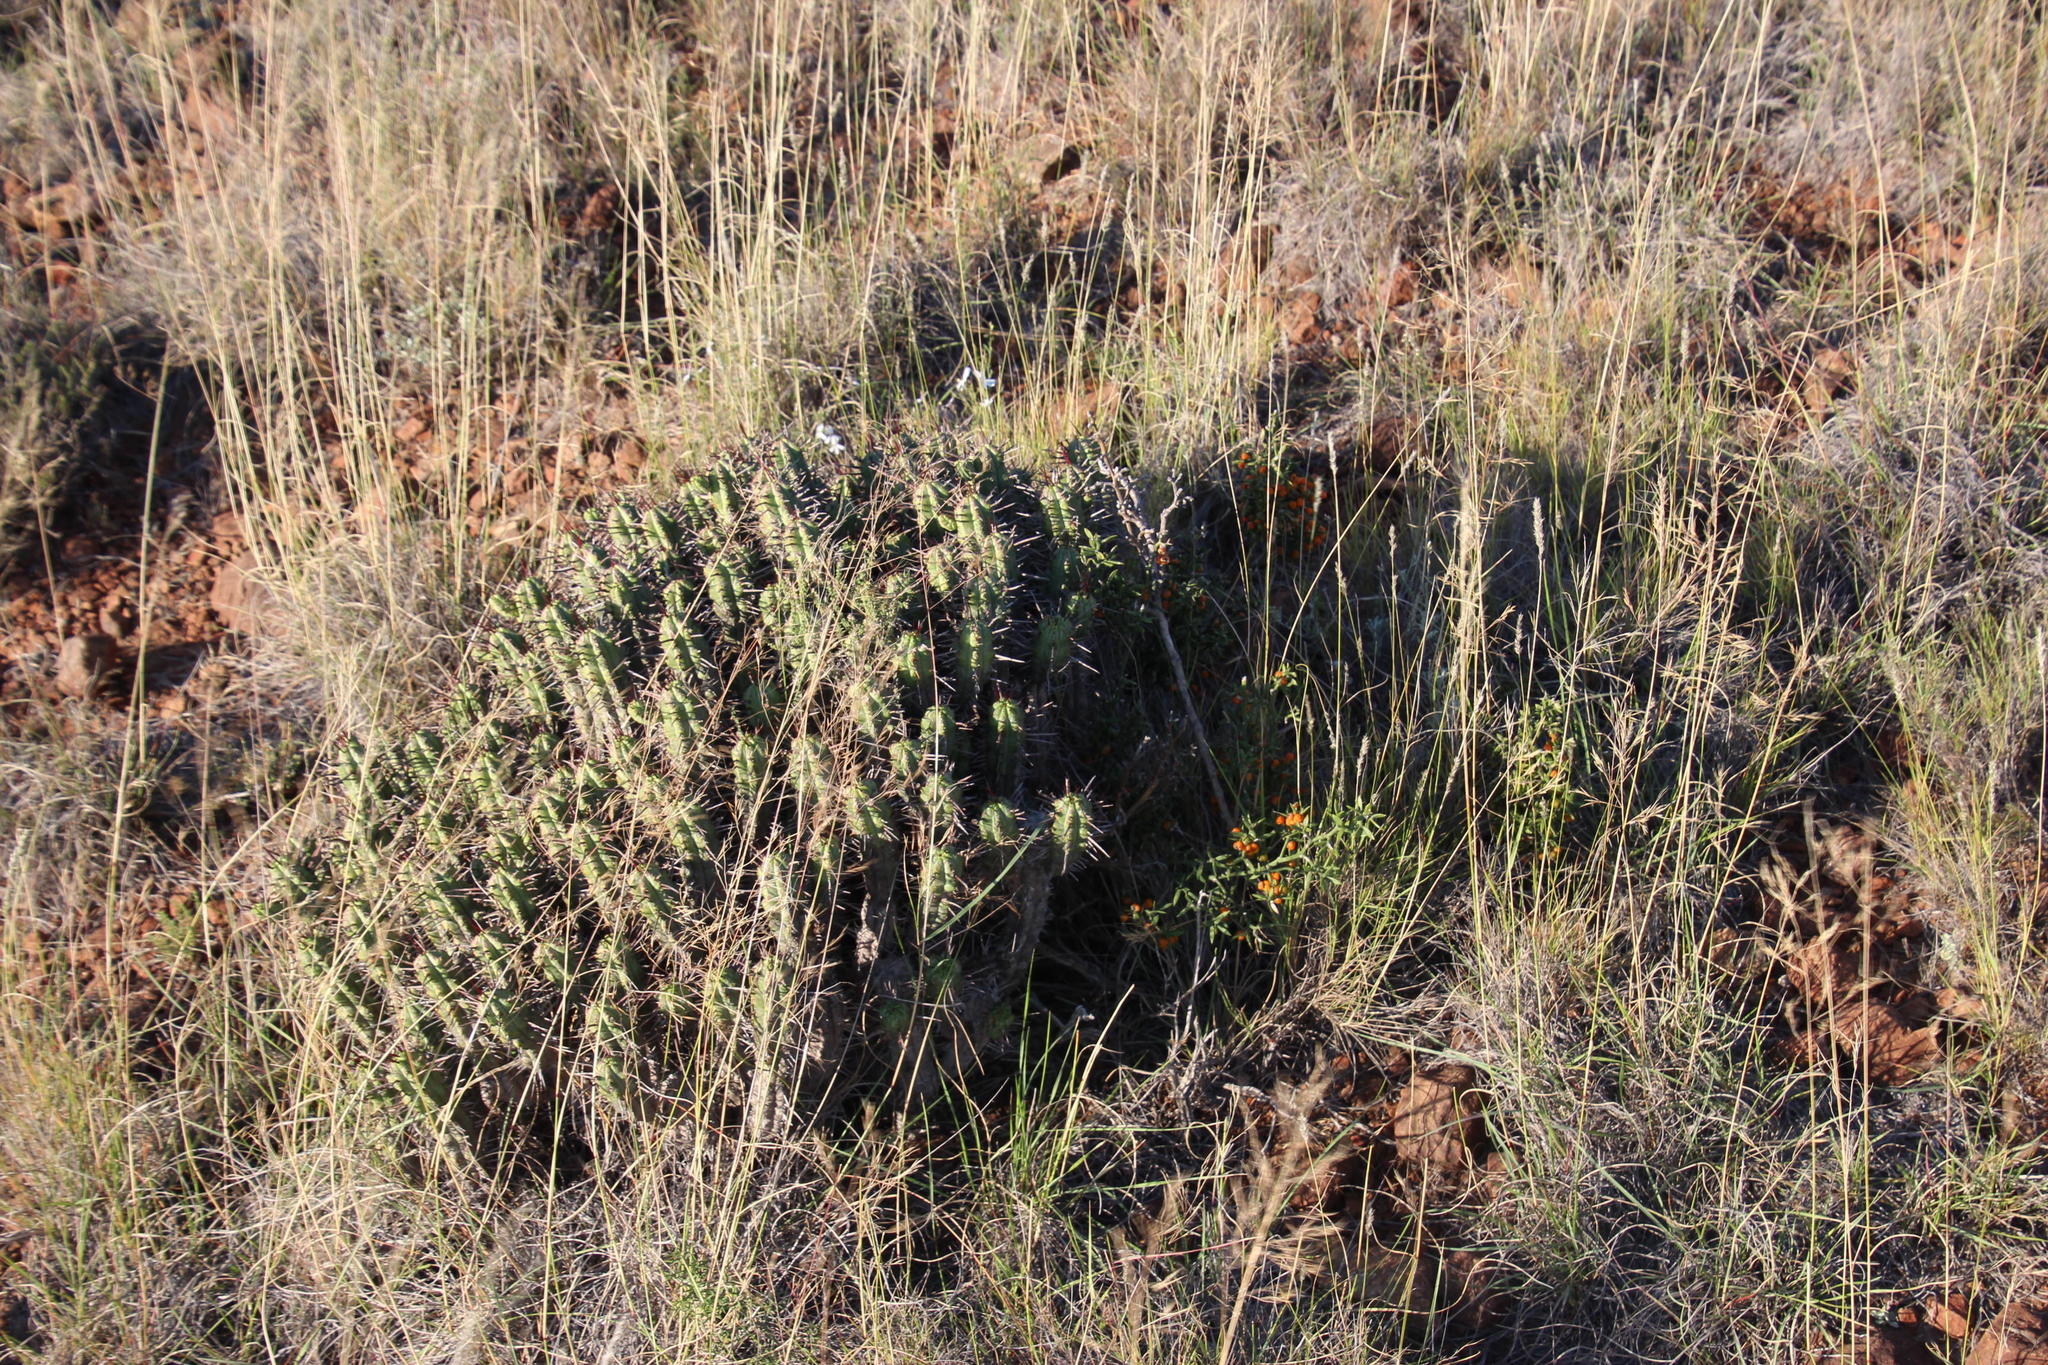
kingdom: Plantae
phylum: Tracheophyta
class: Liliopsida
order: Asparagales
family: Asparagaceae
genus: Asparagus
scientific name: Asparagus striatus
